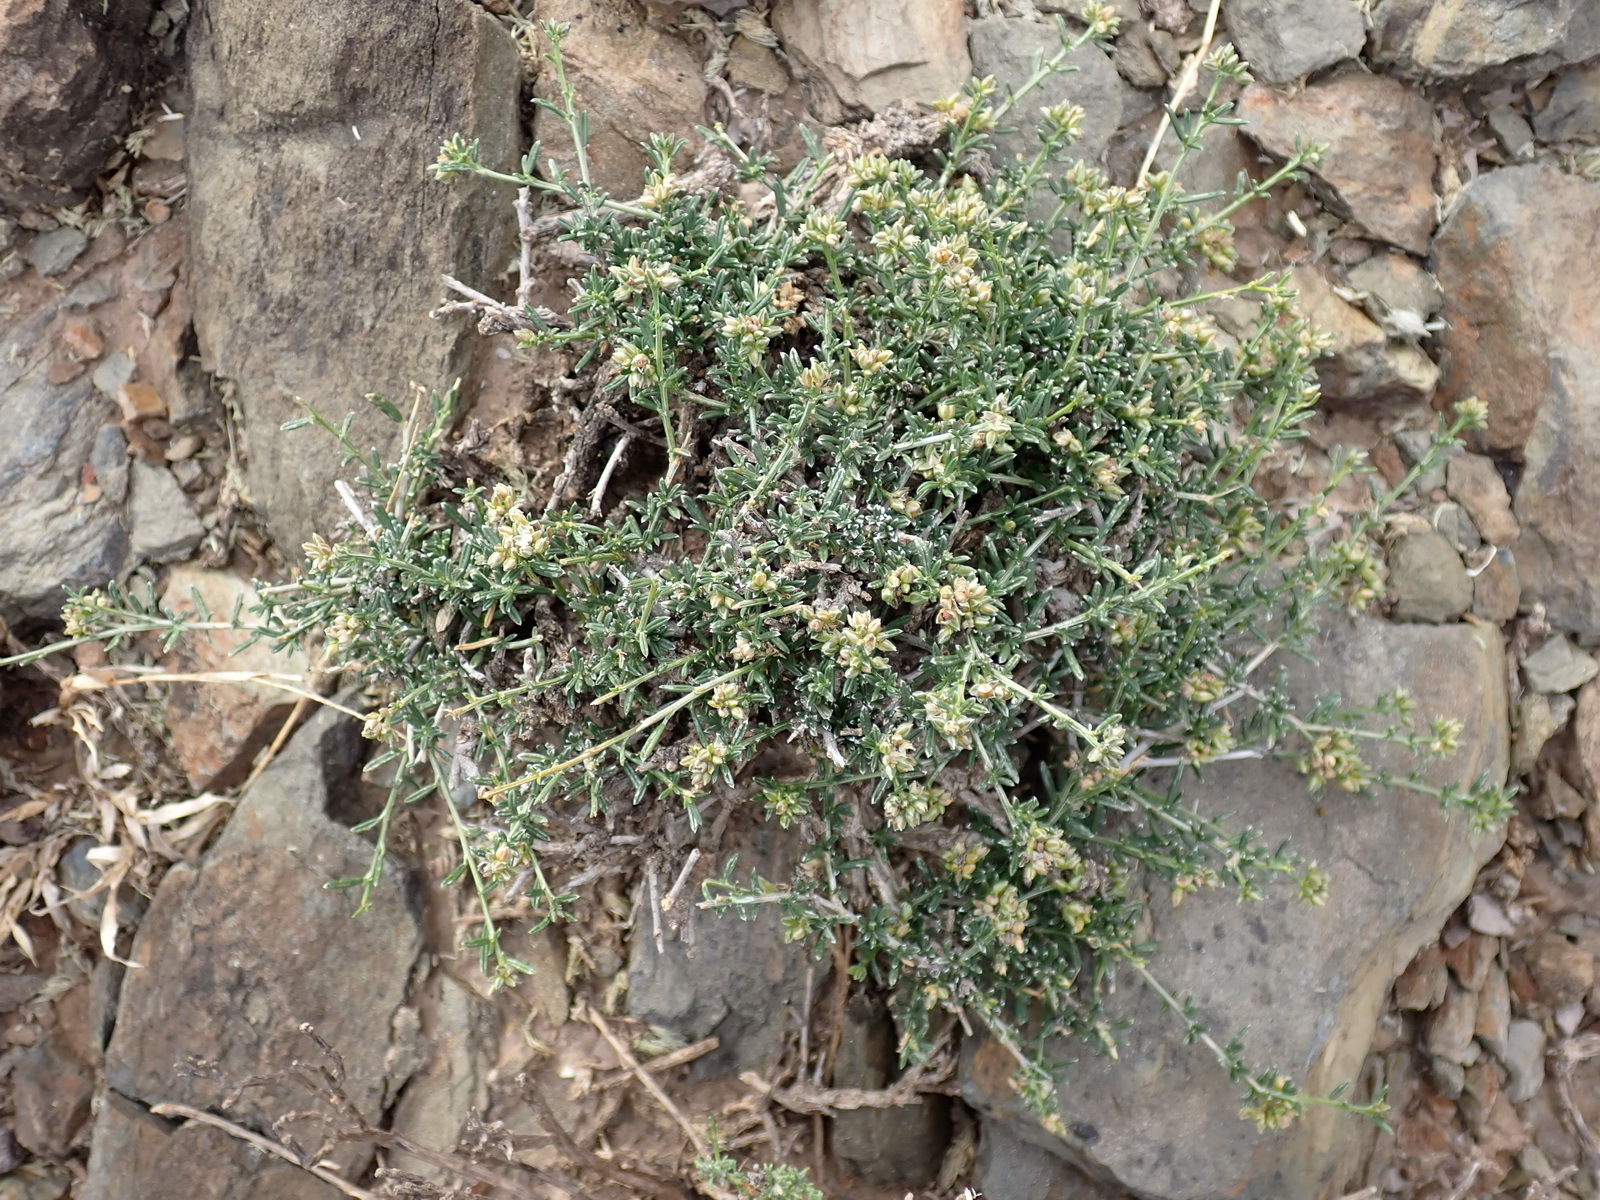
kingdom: Plantae
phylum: Tracheophyta
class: Magnoliopsida
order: Caryophyllales
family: Limeaceae
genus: Limeum
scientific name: Limeum aethiopicum
